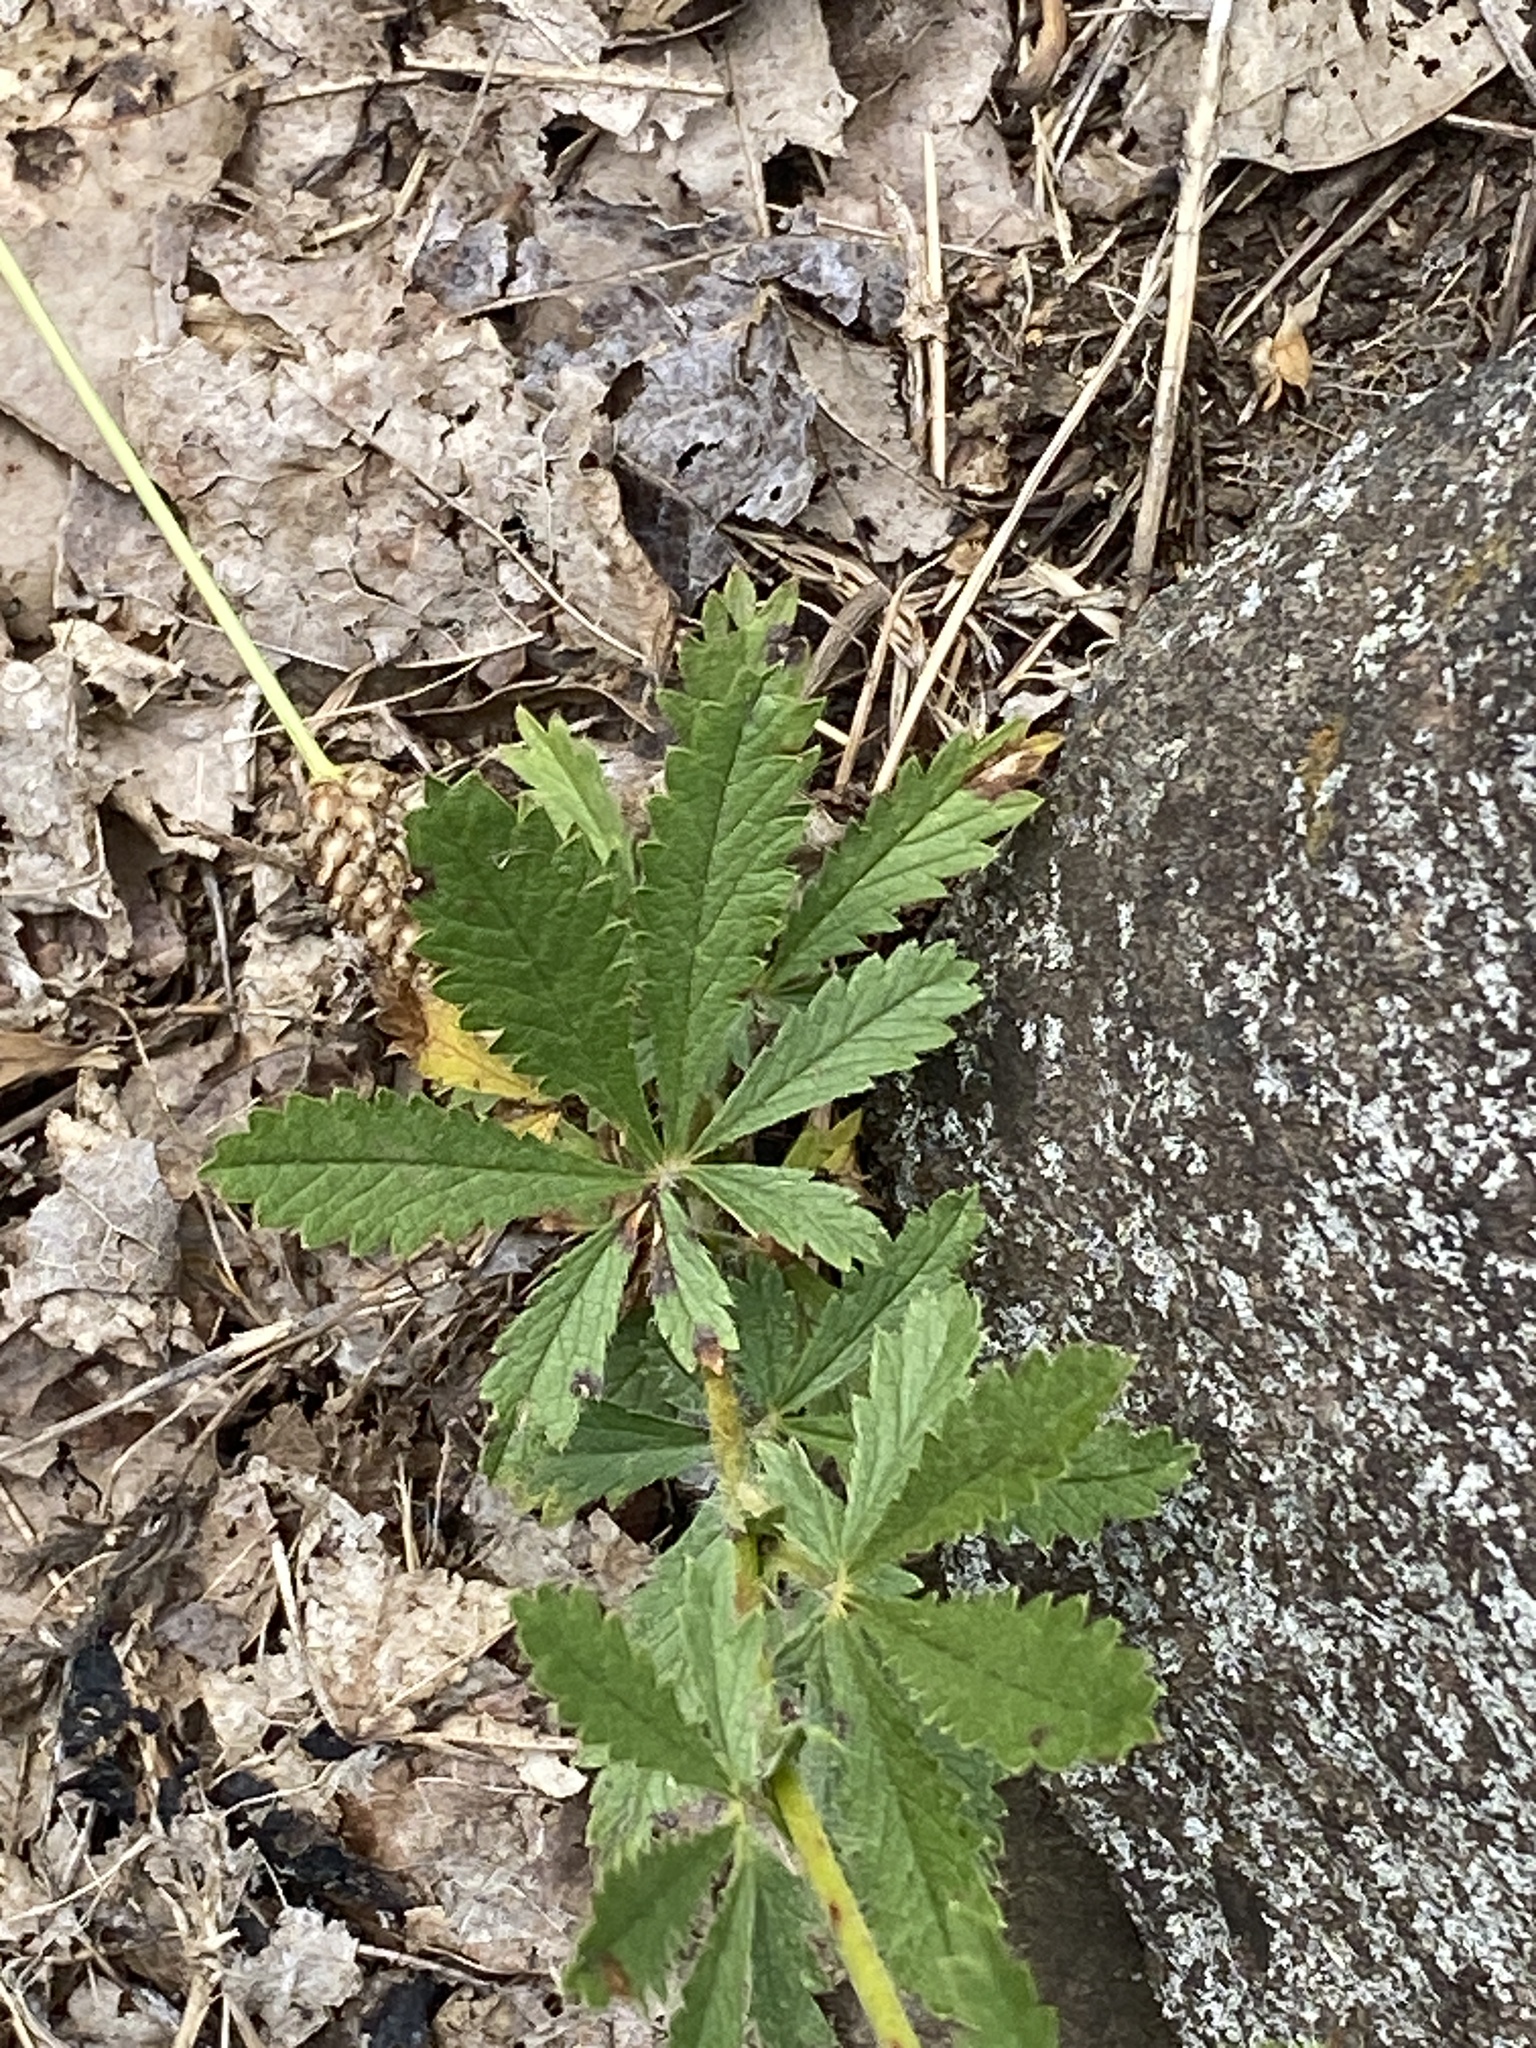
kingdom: Plantae
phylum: Tracheophyta
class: Magnoliopsida
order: Rosales
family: Rosaceae
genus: Potentilla
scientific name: Potentilla recta
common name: Sulphur cinquefoil
